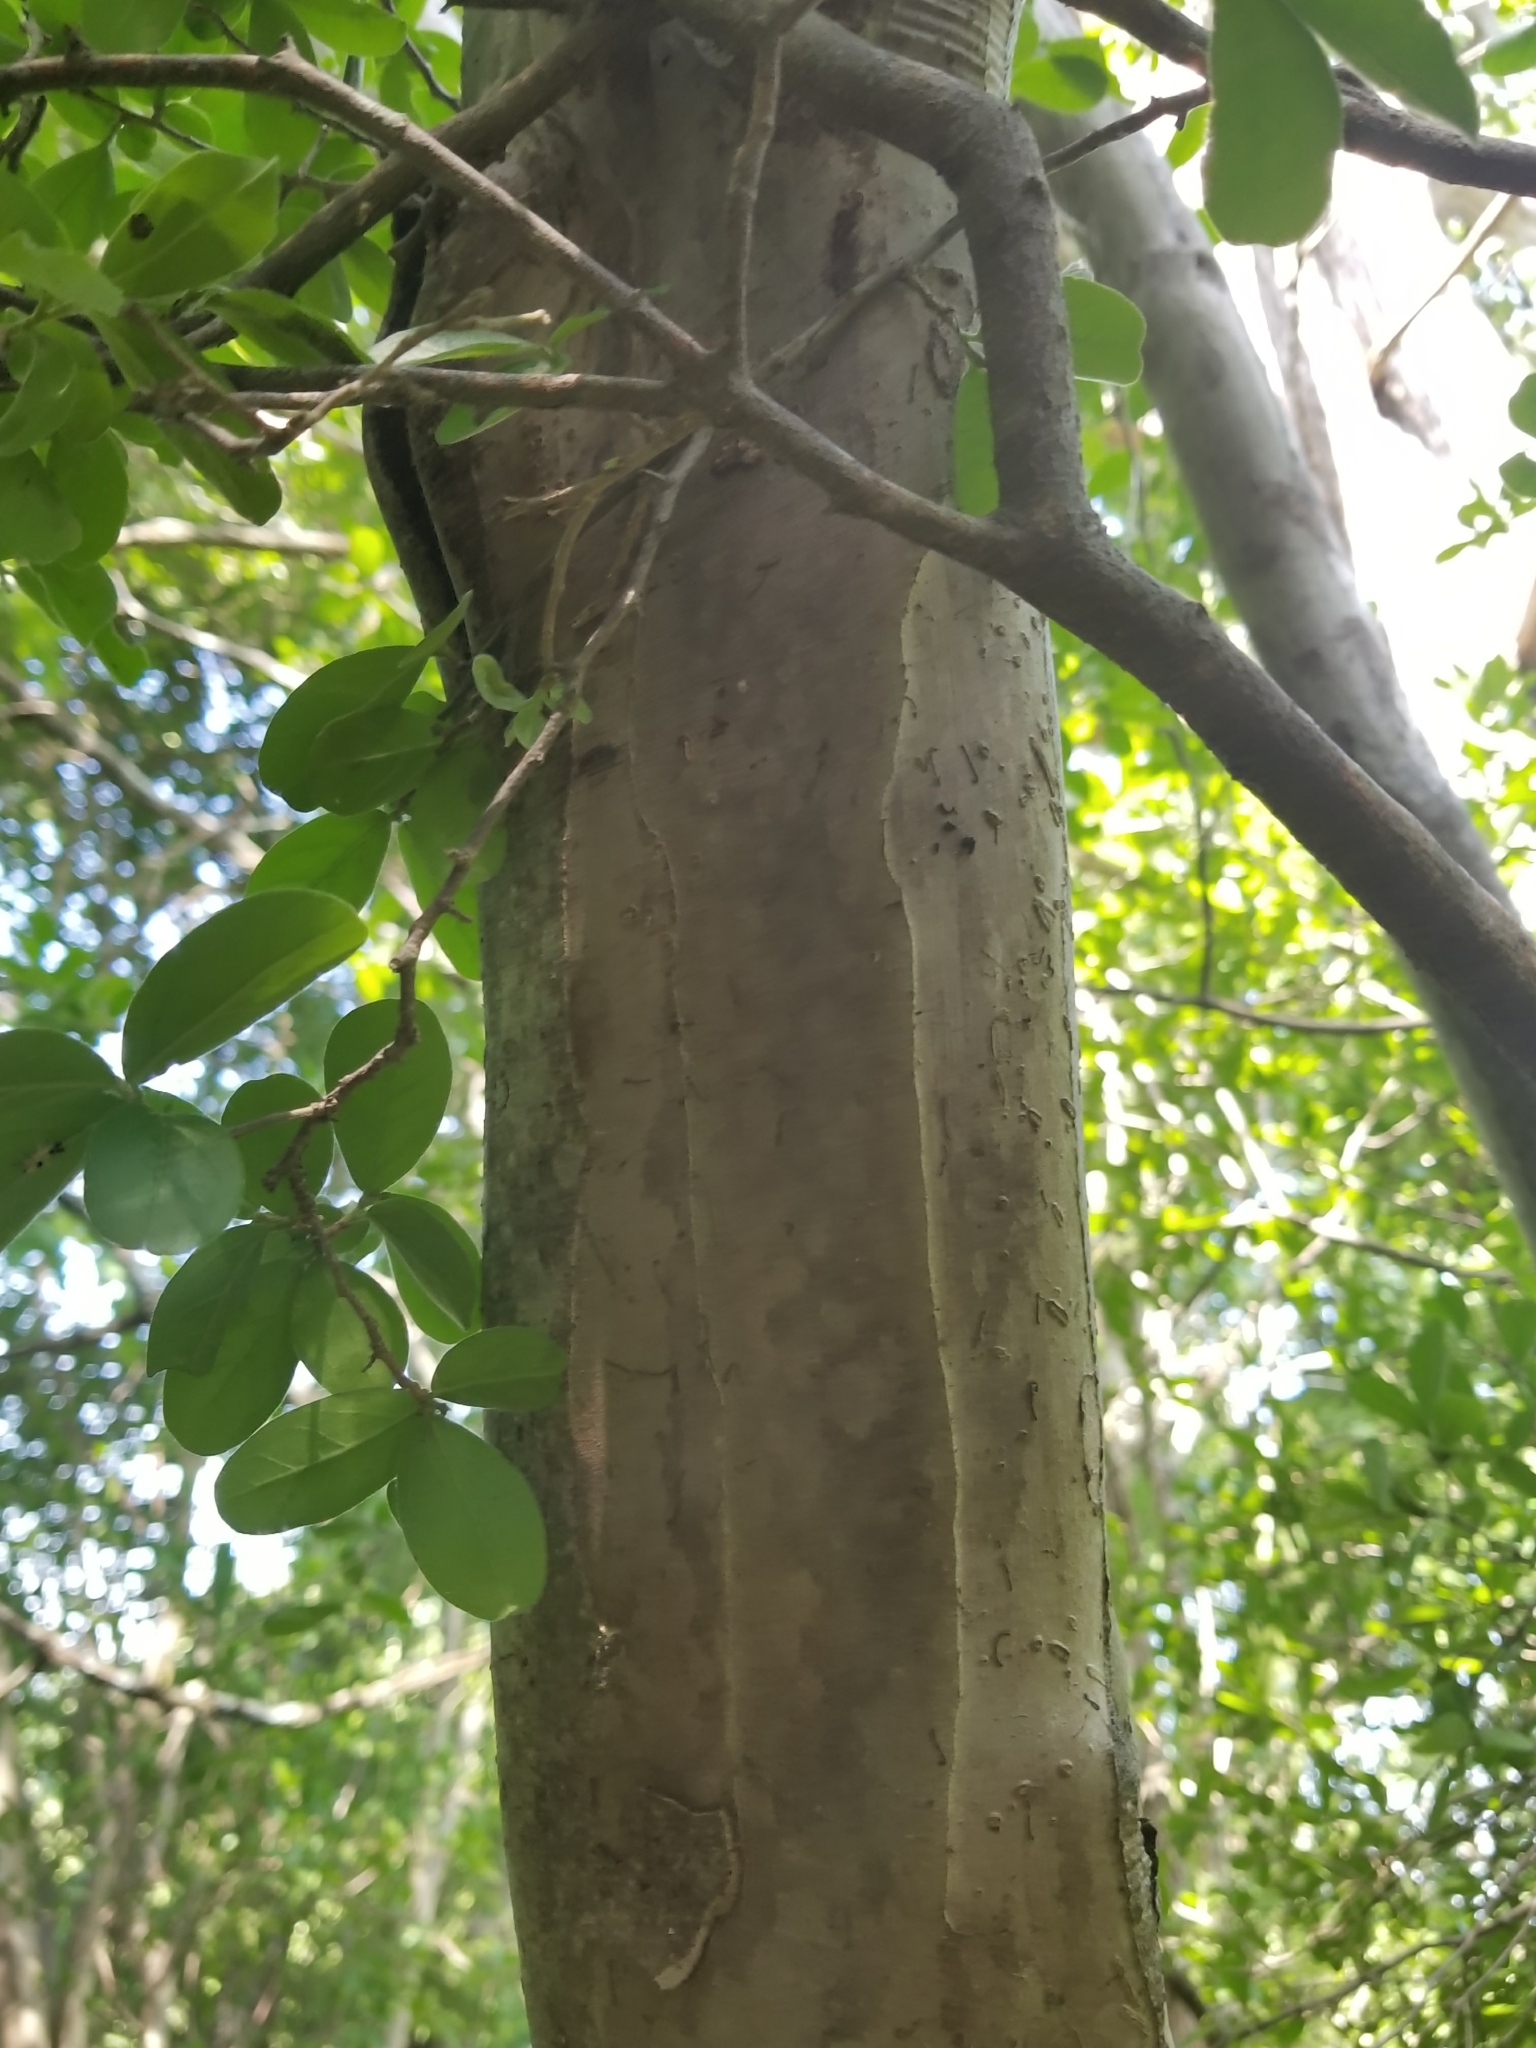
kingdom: Plantae
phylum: Tracheophyta
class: Magnoliopsida
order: Ericales
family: Ebenaceae
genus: Diospyros
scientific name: Diospyros texana
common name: Texas persimmon
